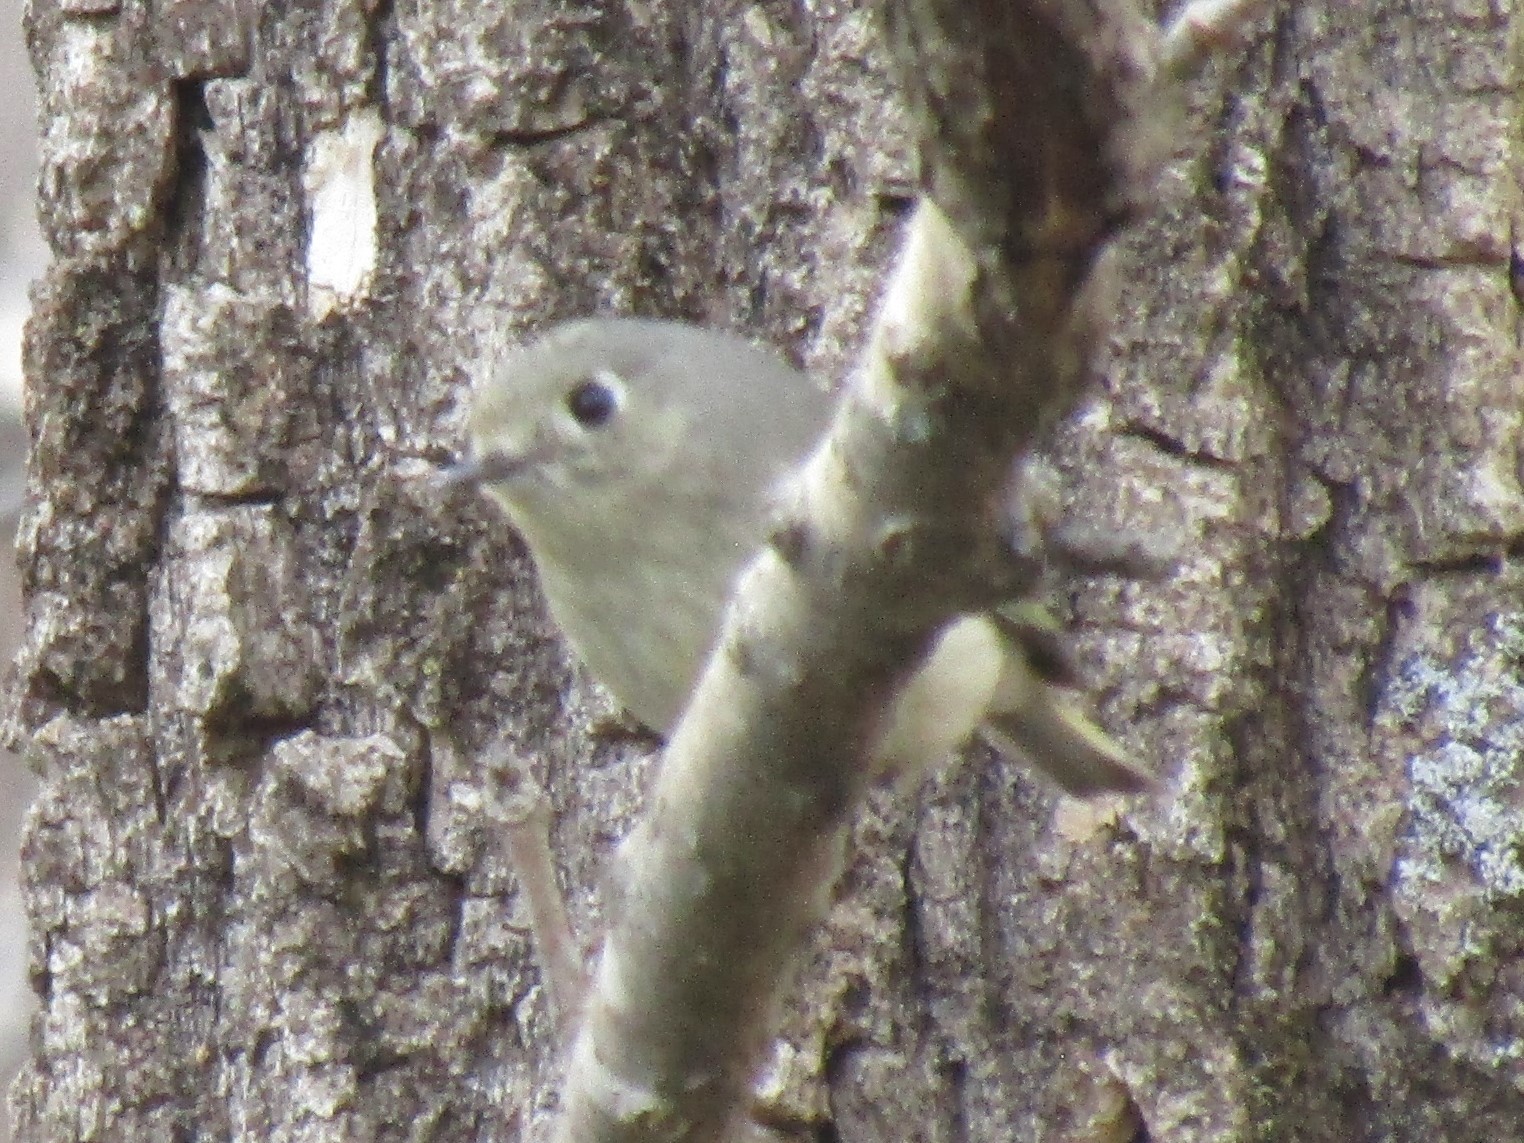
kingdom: Animalia
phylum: Chordata
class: Aves
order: Passeriformes
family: Regulidae
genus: Regulus
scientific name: Regulus calendula
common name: Ruby-crowned kinglet
